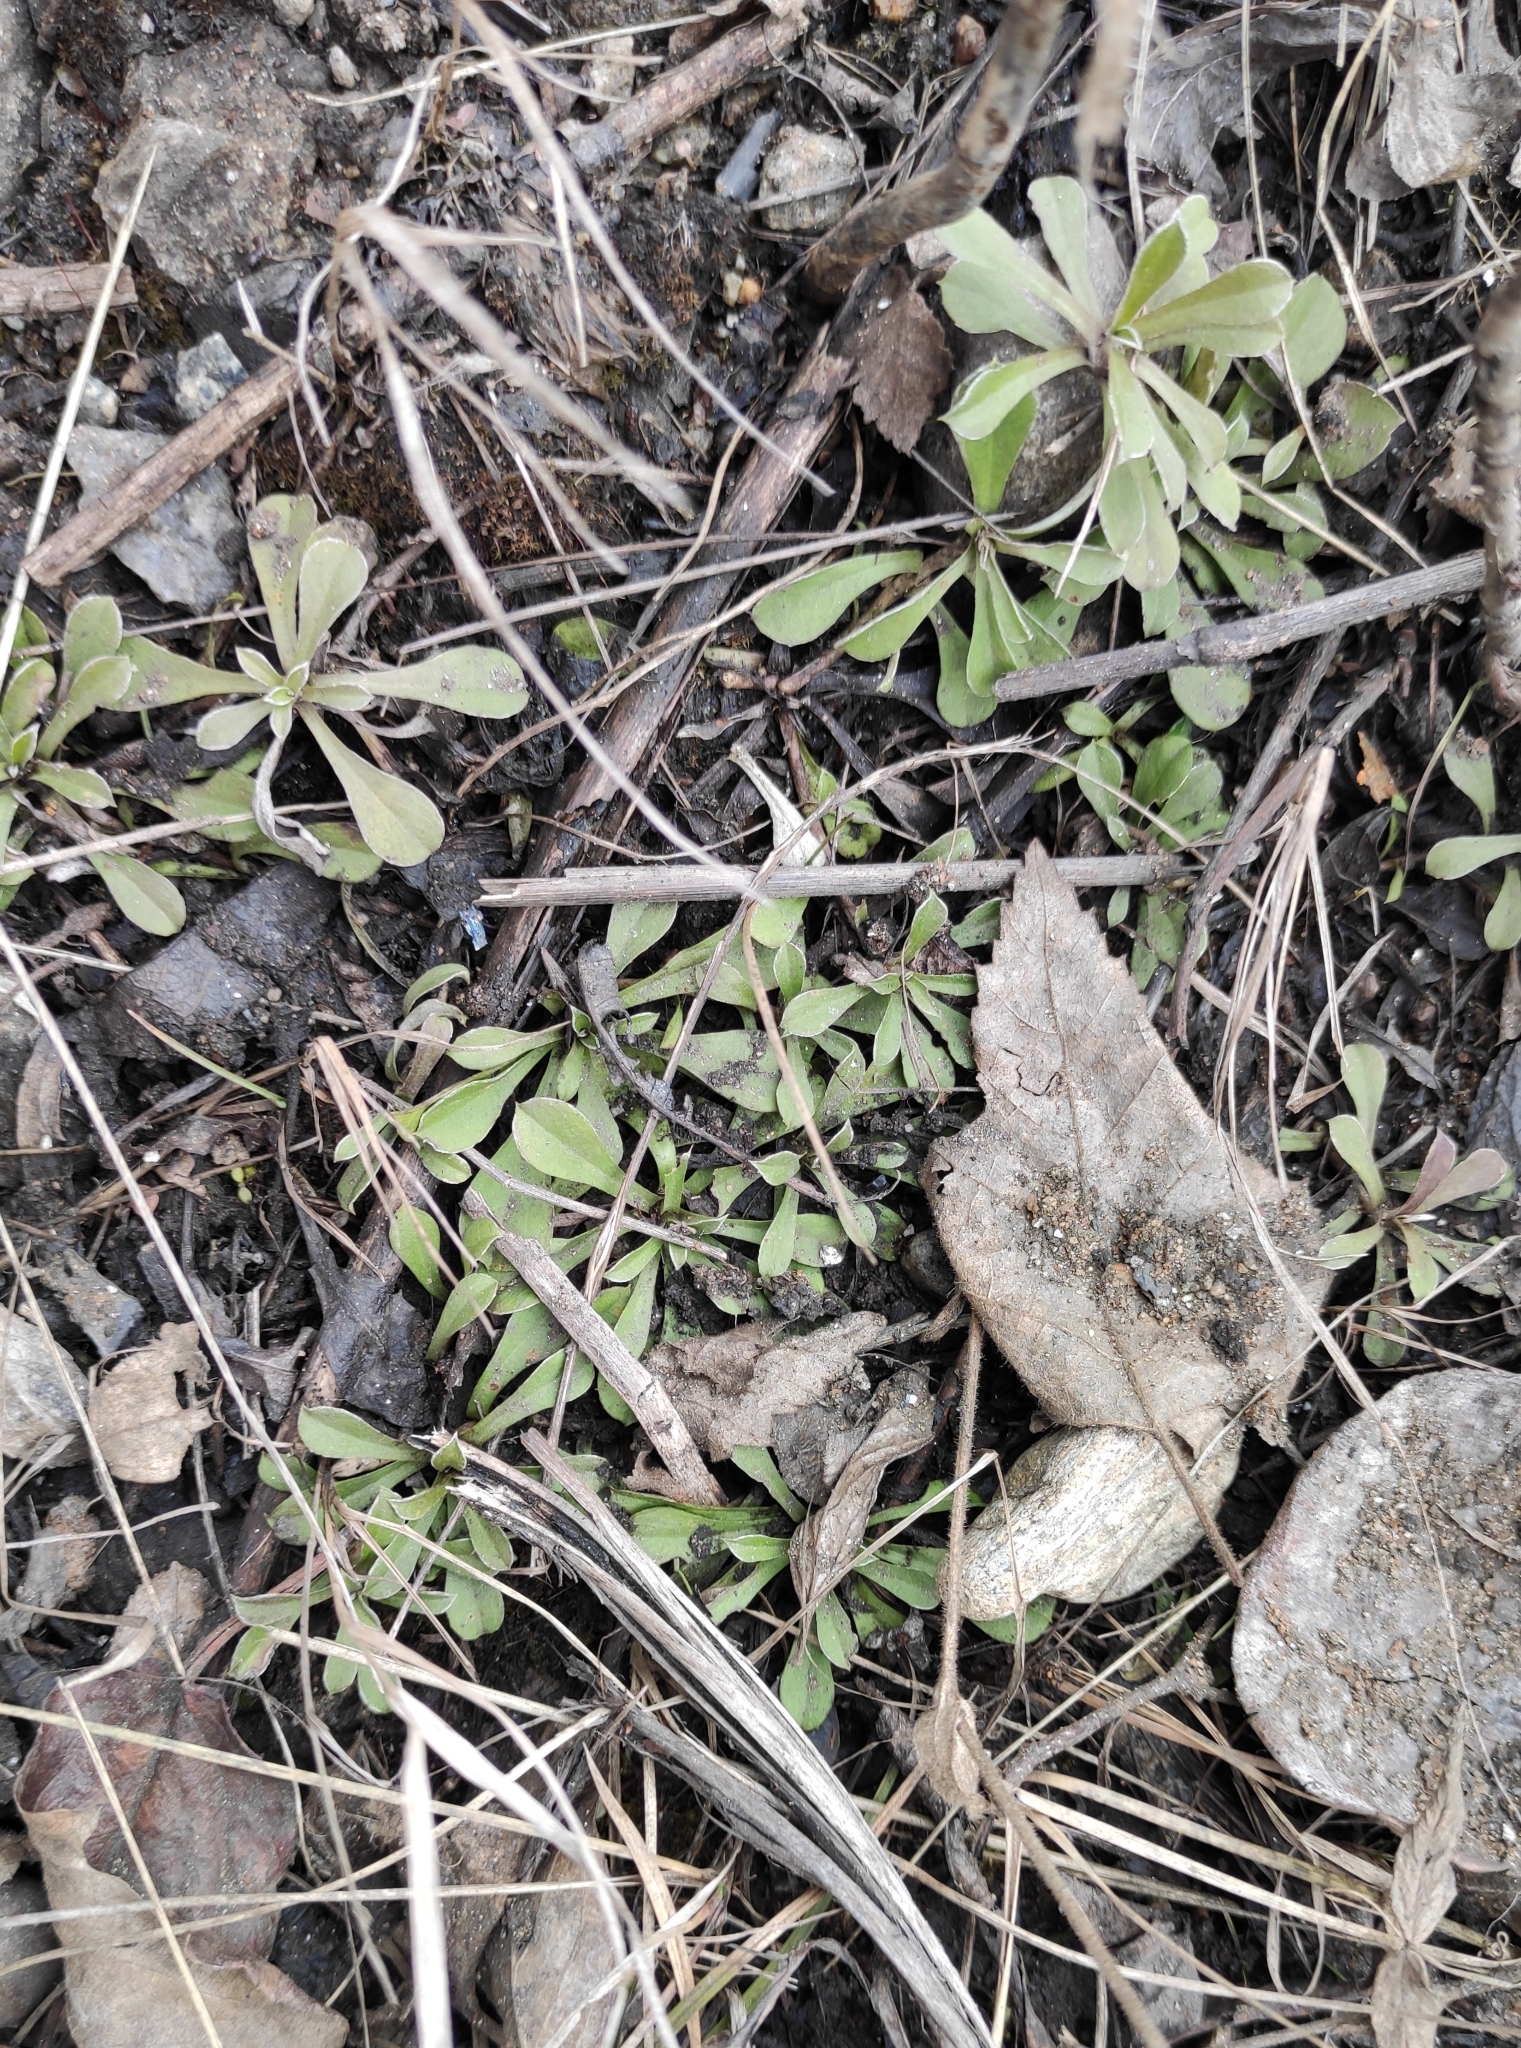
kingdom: Plantae
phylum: Tracheophyta
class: Magnoliopsida
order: Asterales
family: Asteraceae
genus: Antennaria
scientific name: Antennaria dioica
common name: Mountain everlasting
